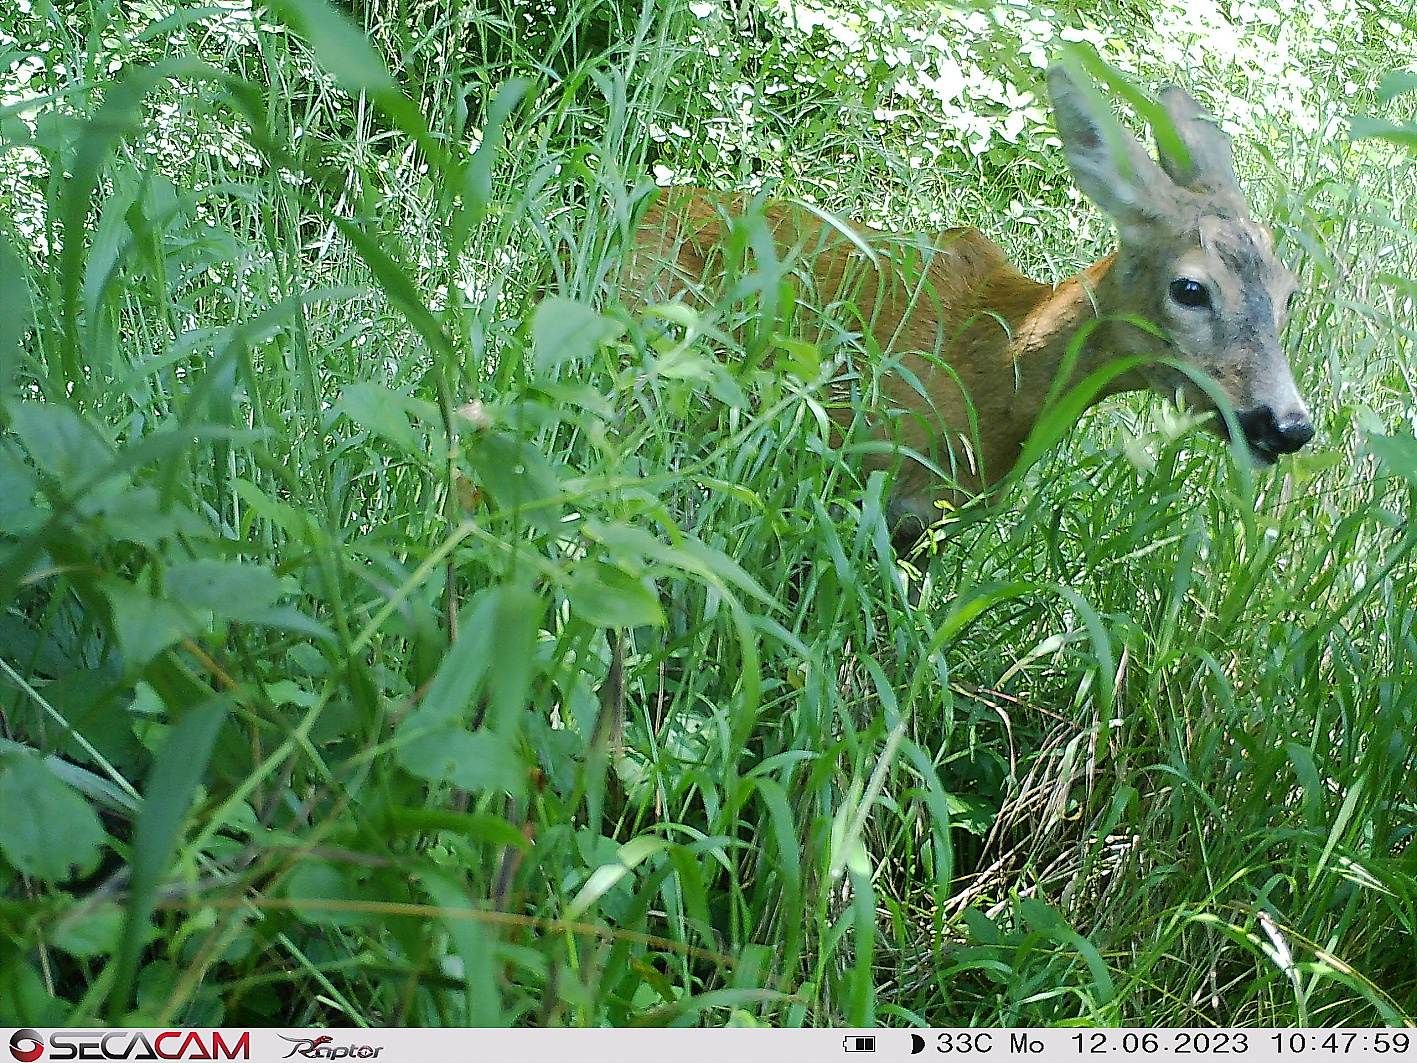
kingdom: Animalia
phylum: Chordata
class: Mammalia
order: Artiodactyla
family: Cervidae
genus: Capreolus
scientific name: Capreolus capreolus
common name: Western roe deer
